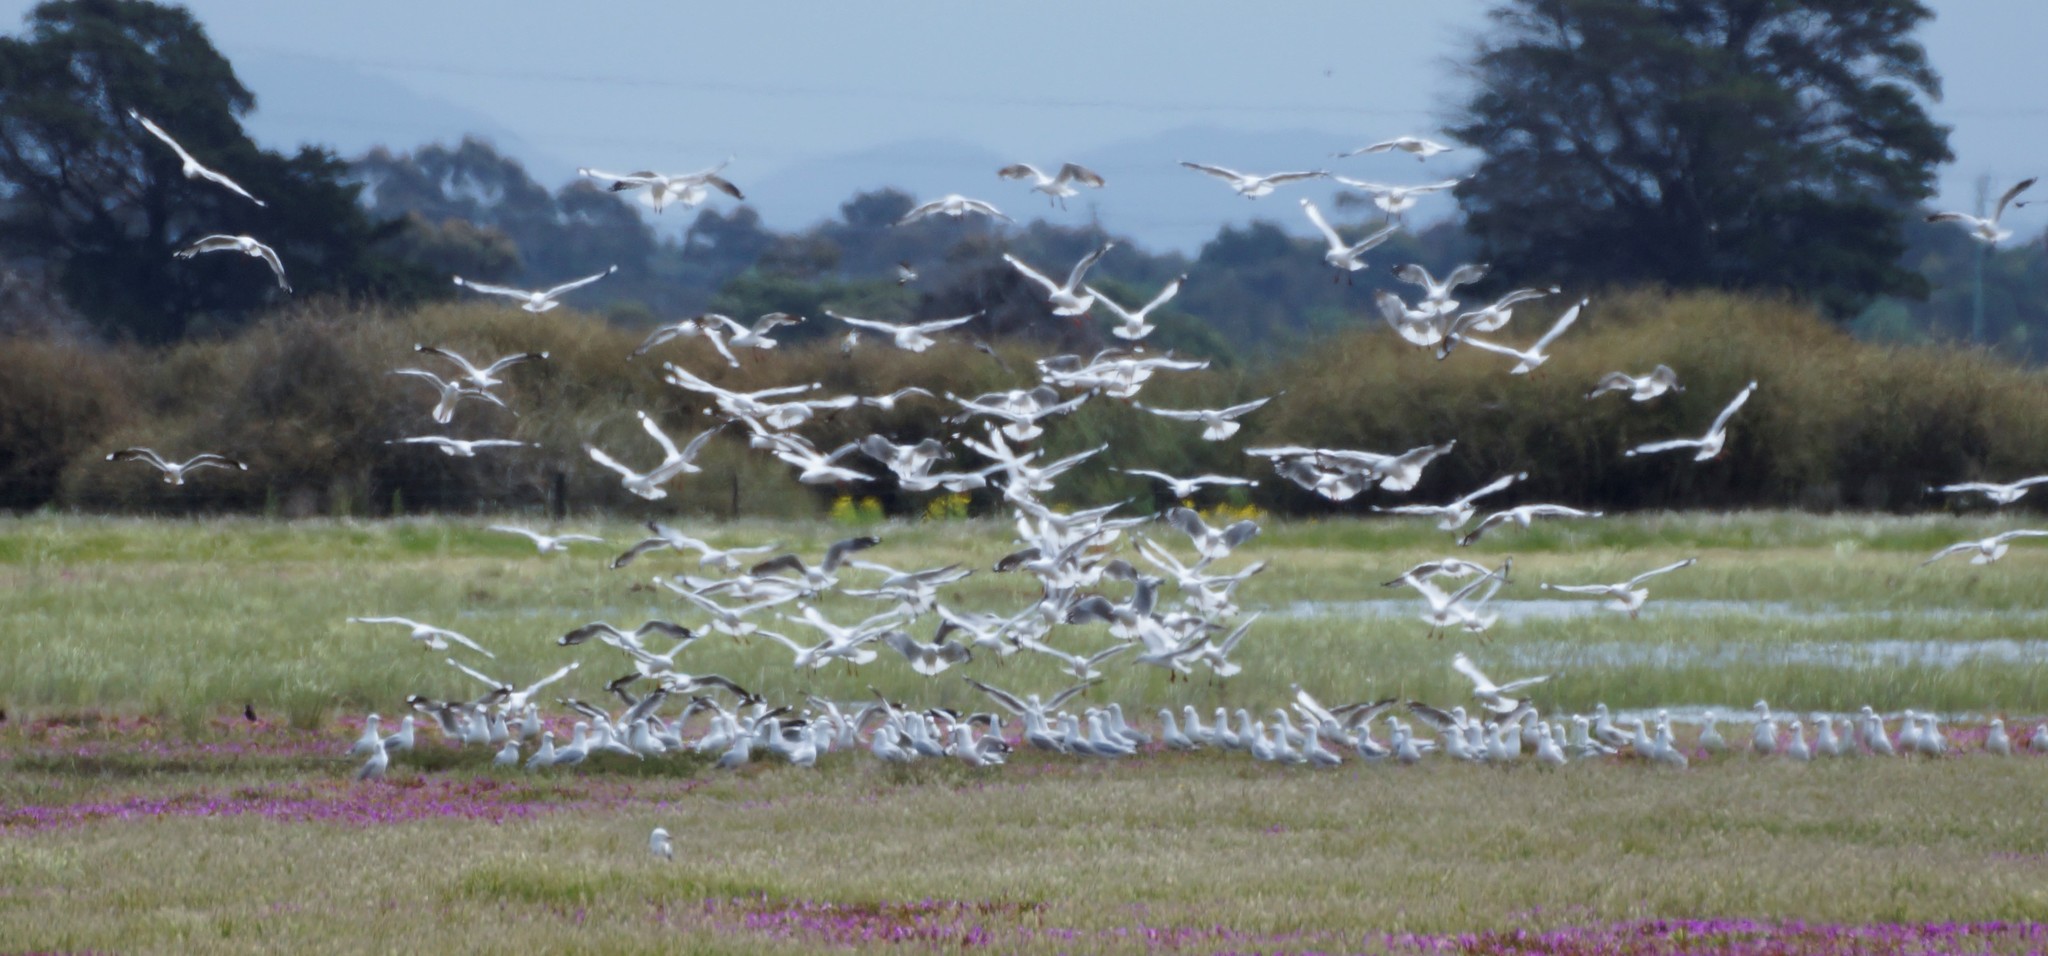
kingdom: Animalia
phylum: Chordata
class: Aves
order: Charadriiformes
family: Laridae
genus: Chroicocephalus
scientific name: Chroicocephalus novaehollandiae
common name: Silver gull
